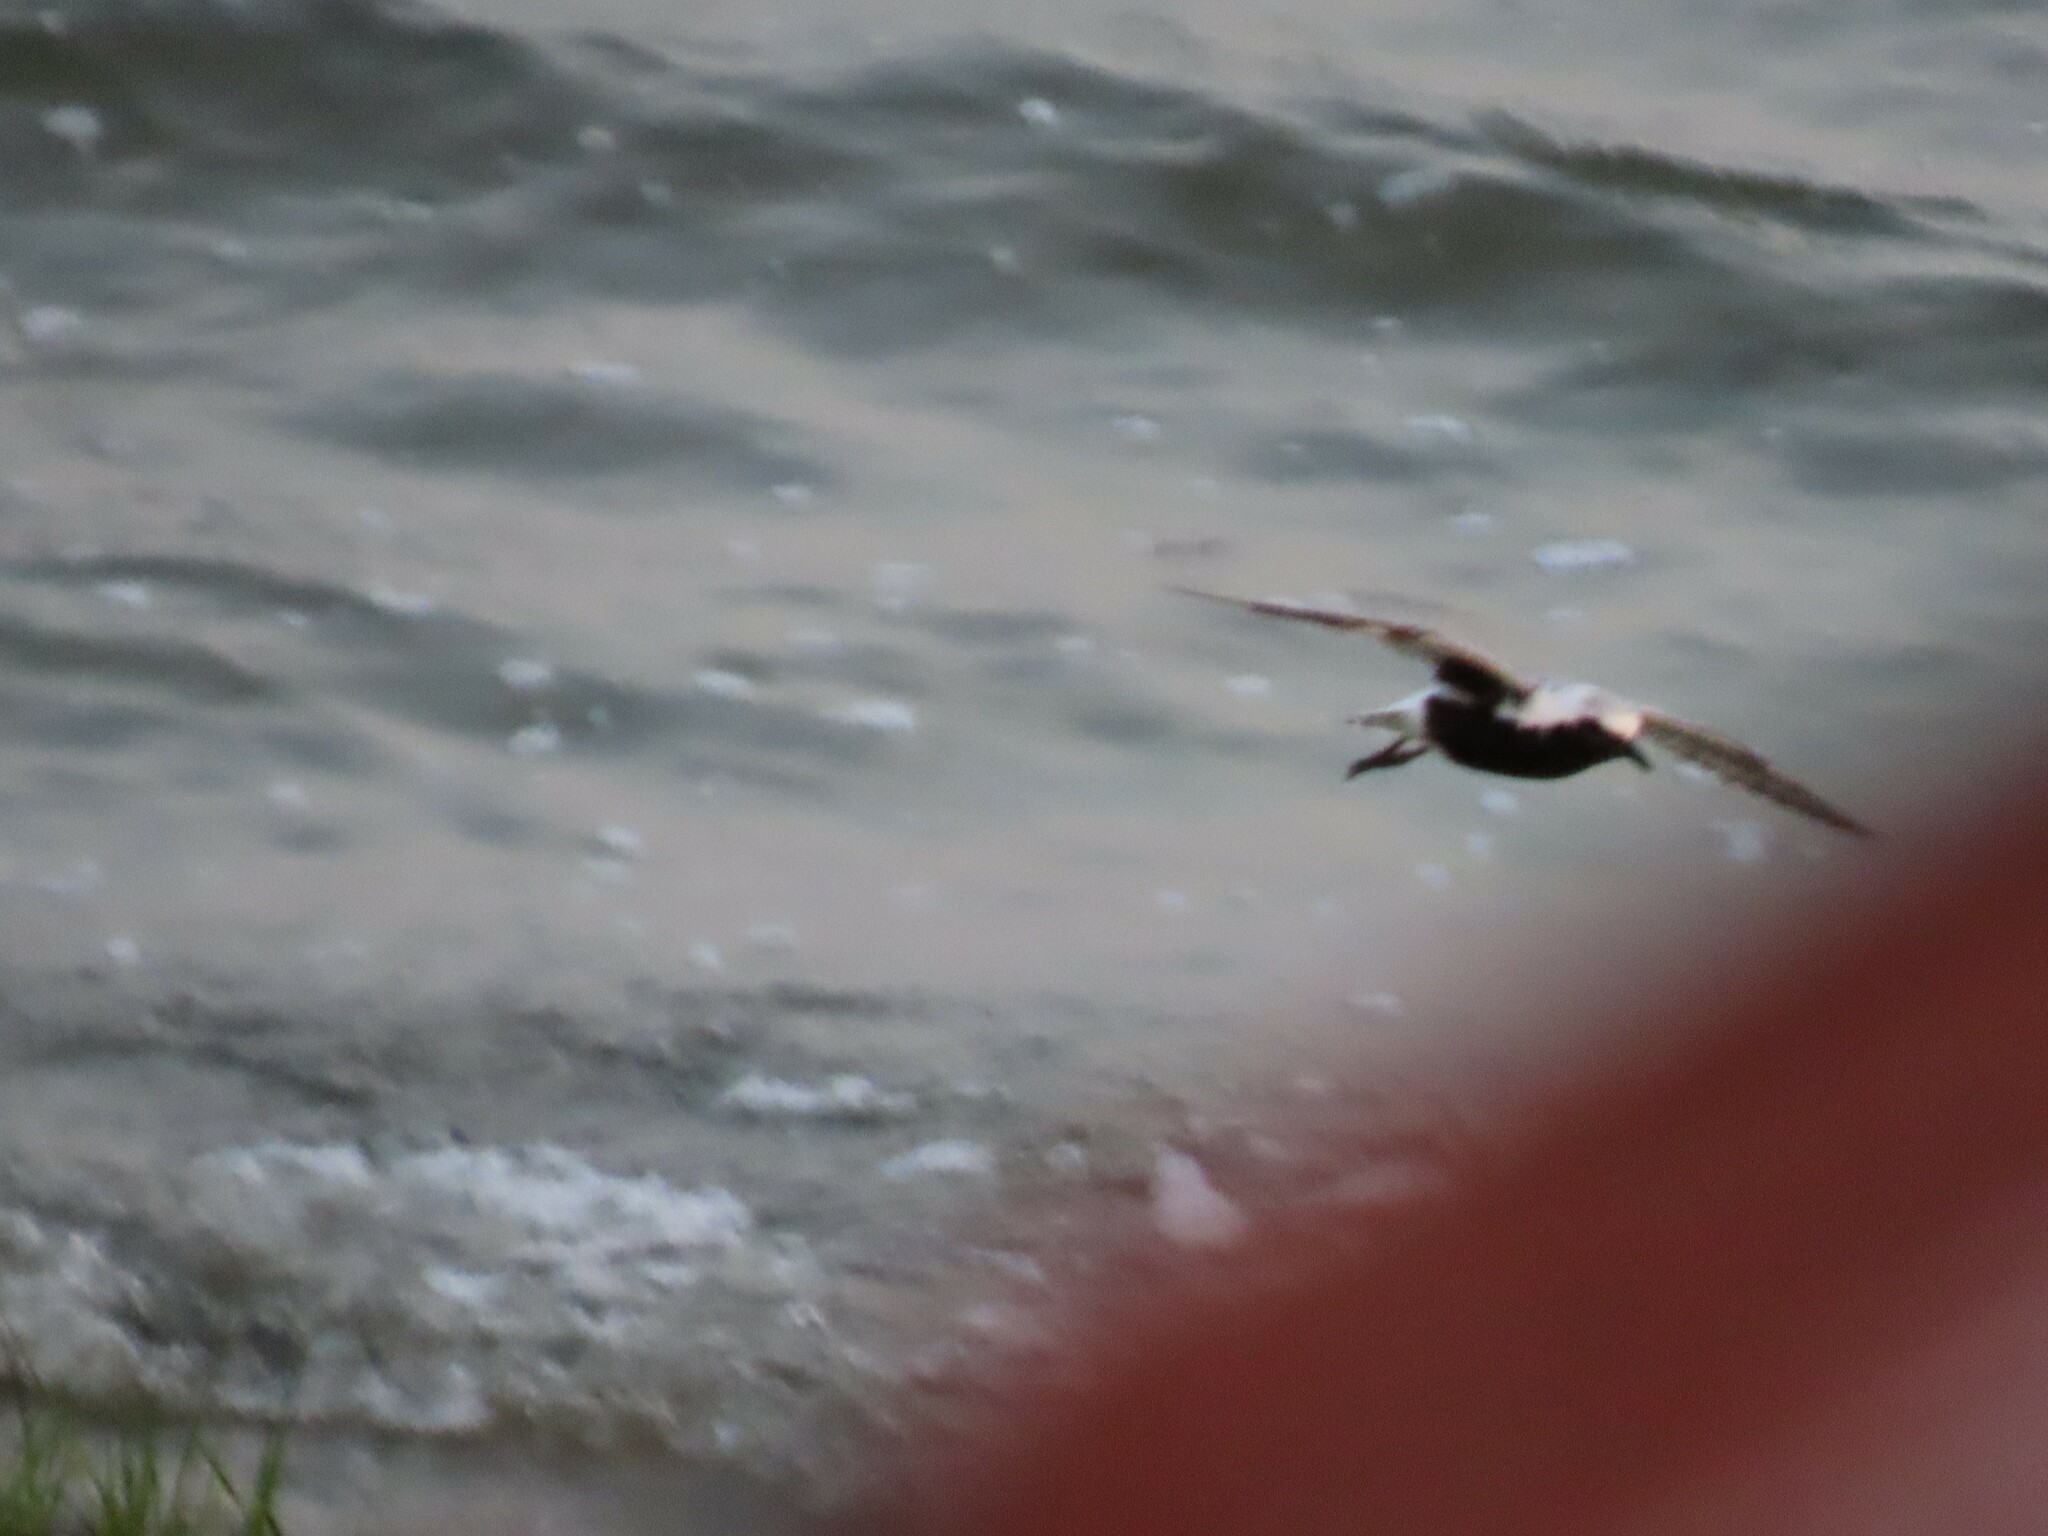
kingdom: Animalia
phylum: Chordata
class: Aves
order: Charadriiformes
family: Charadriidae
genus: Pluvialis
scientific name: Pluvialis squatarola
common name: Grey plover
